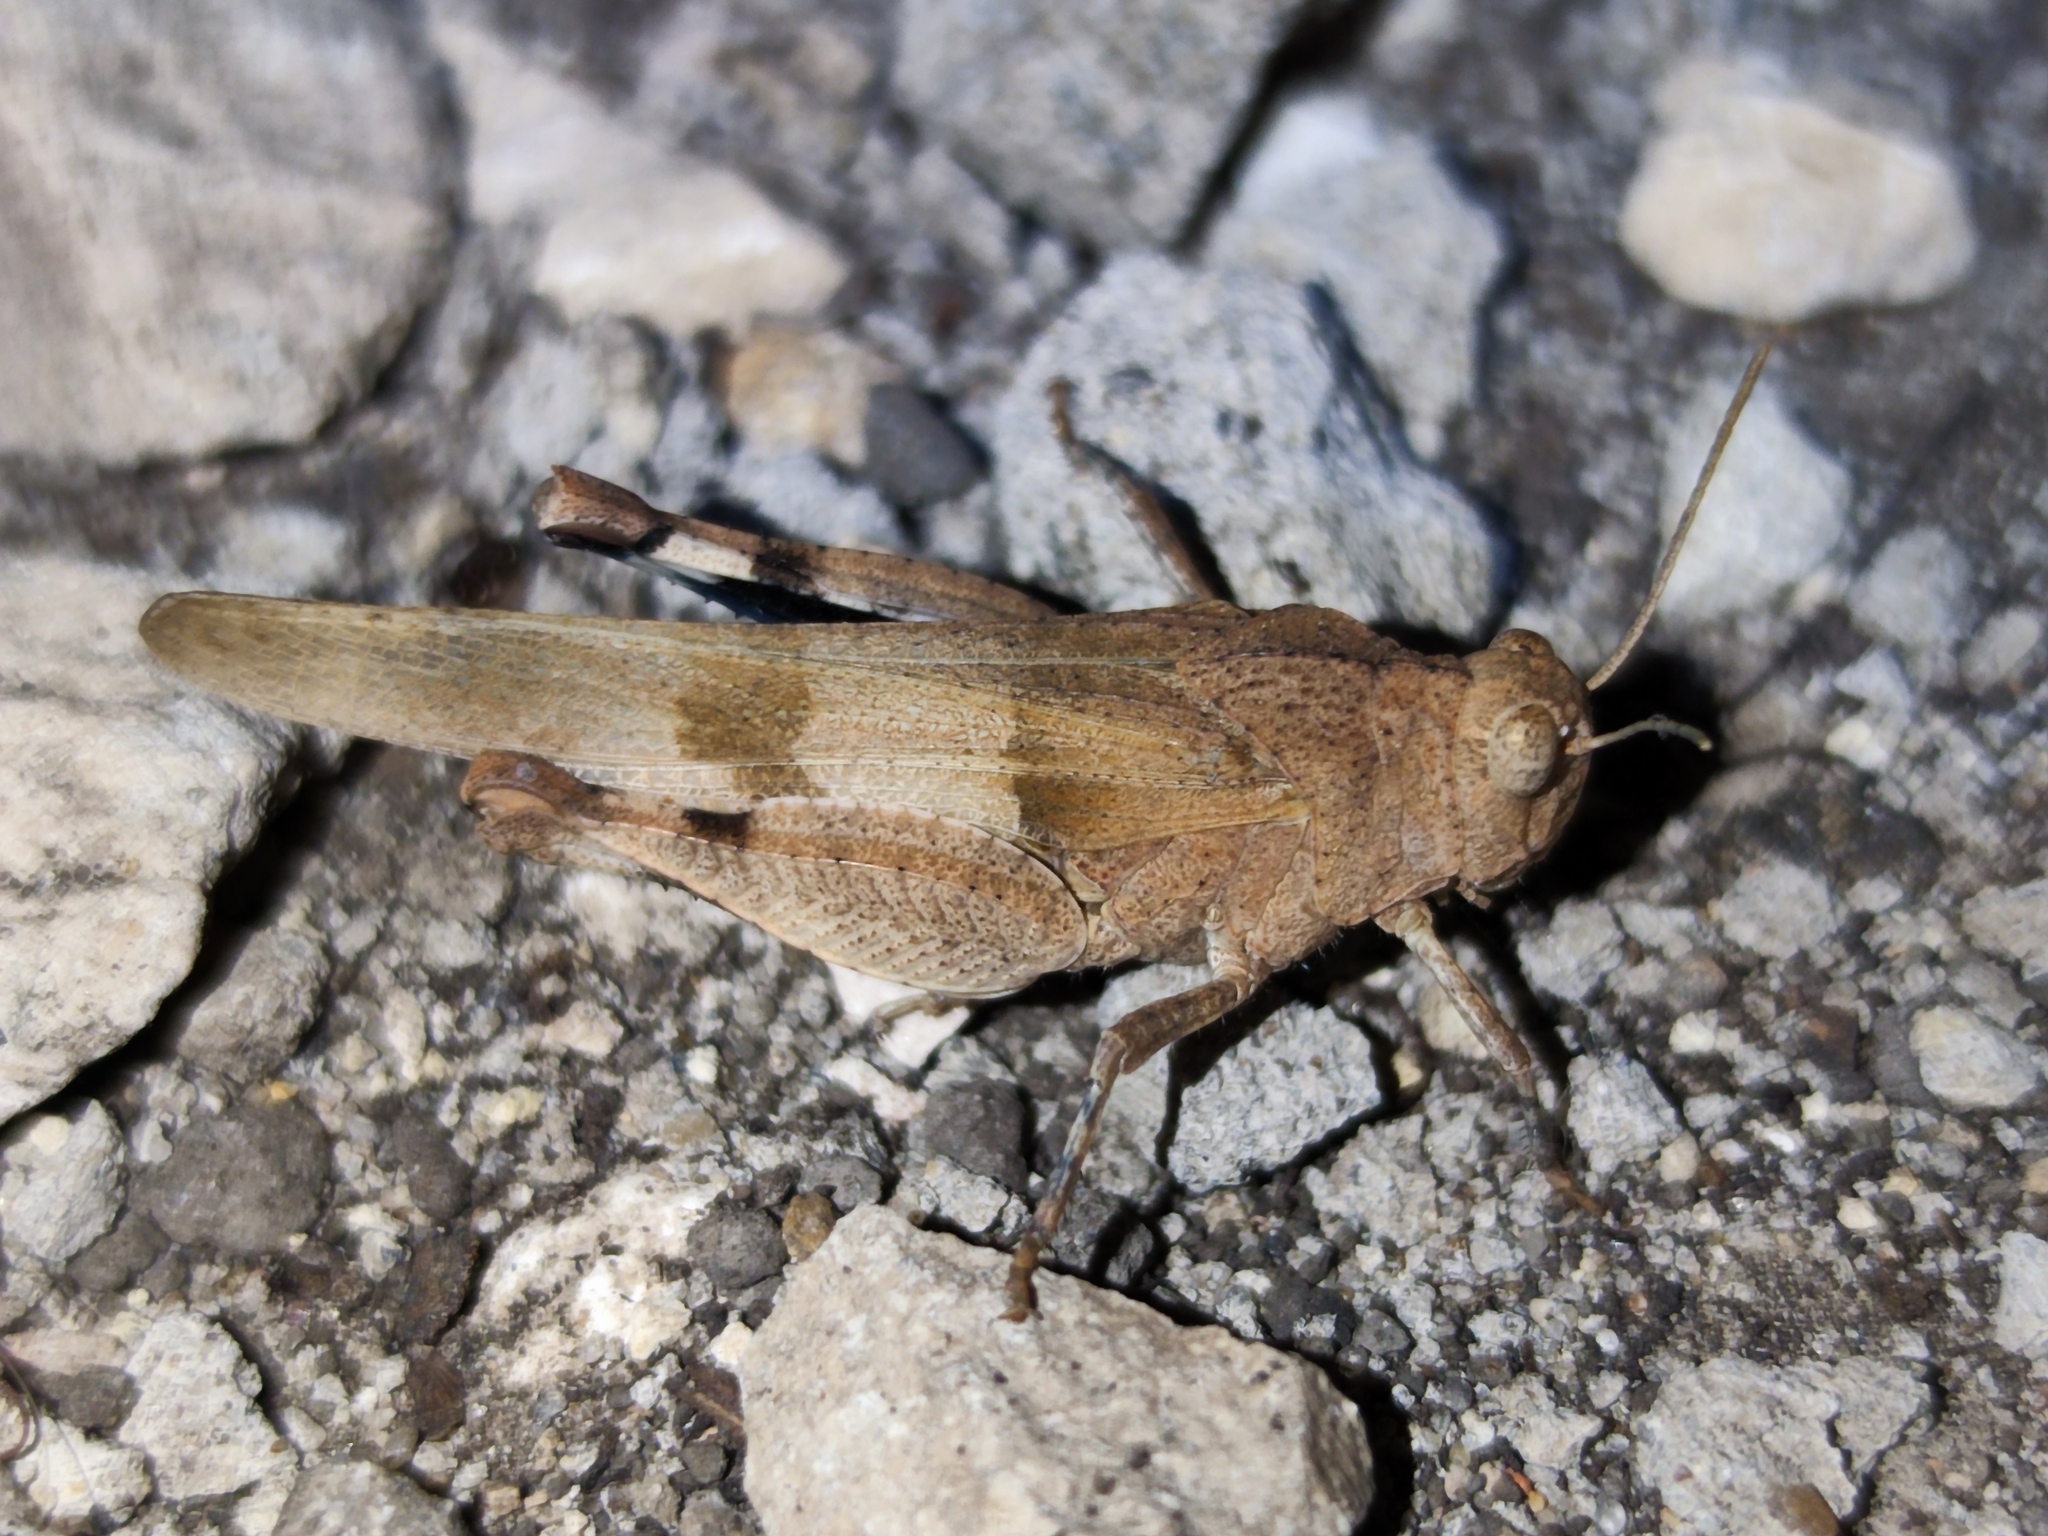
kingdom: Animalia
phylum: Arthropoda
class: Insecta
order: Orthoptera
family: Acrididae
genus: Oedipoda
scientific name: Oedipoda caerulescens
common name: Blue-winged grasshopper
